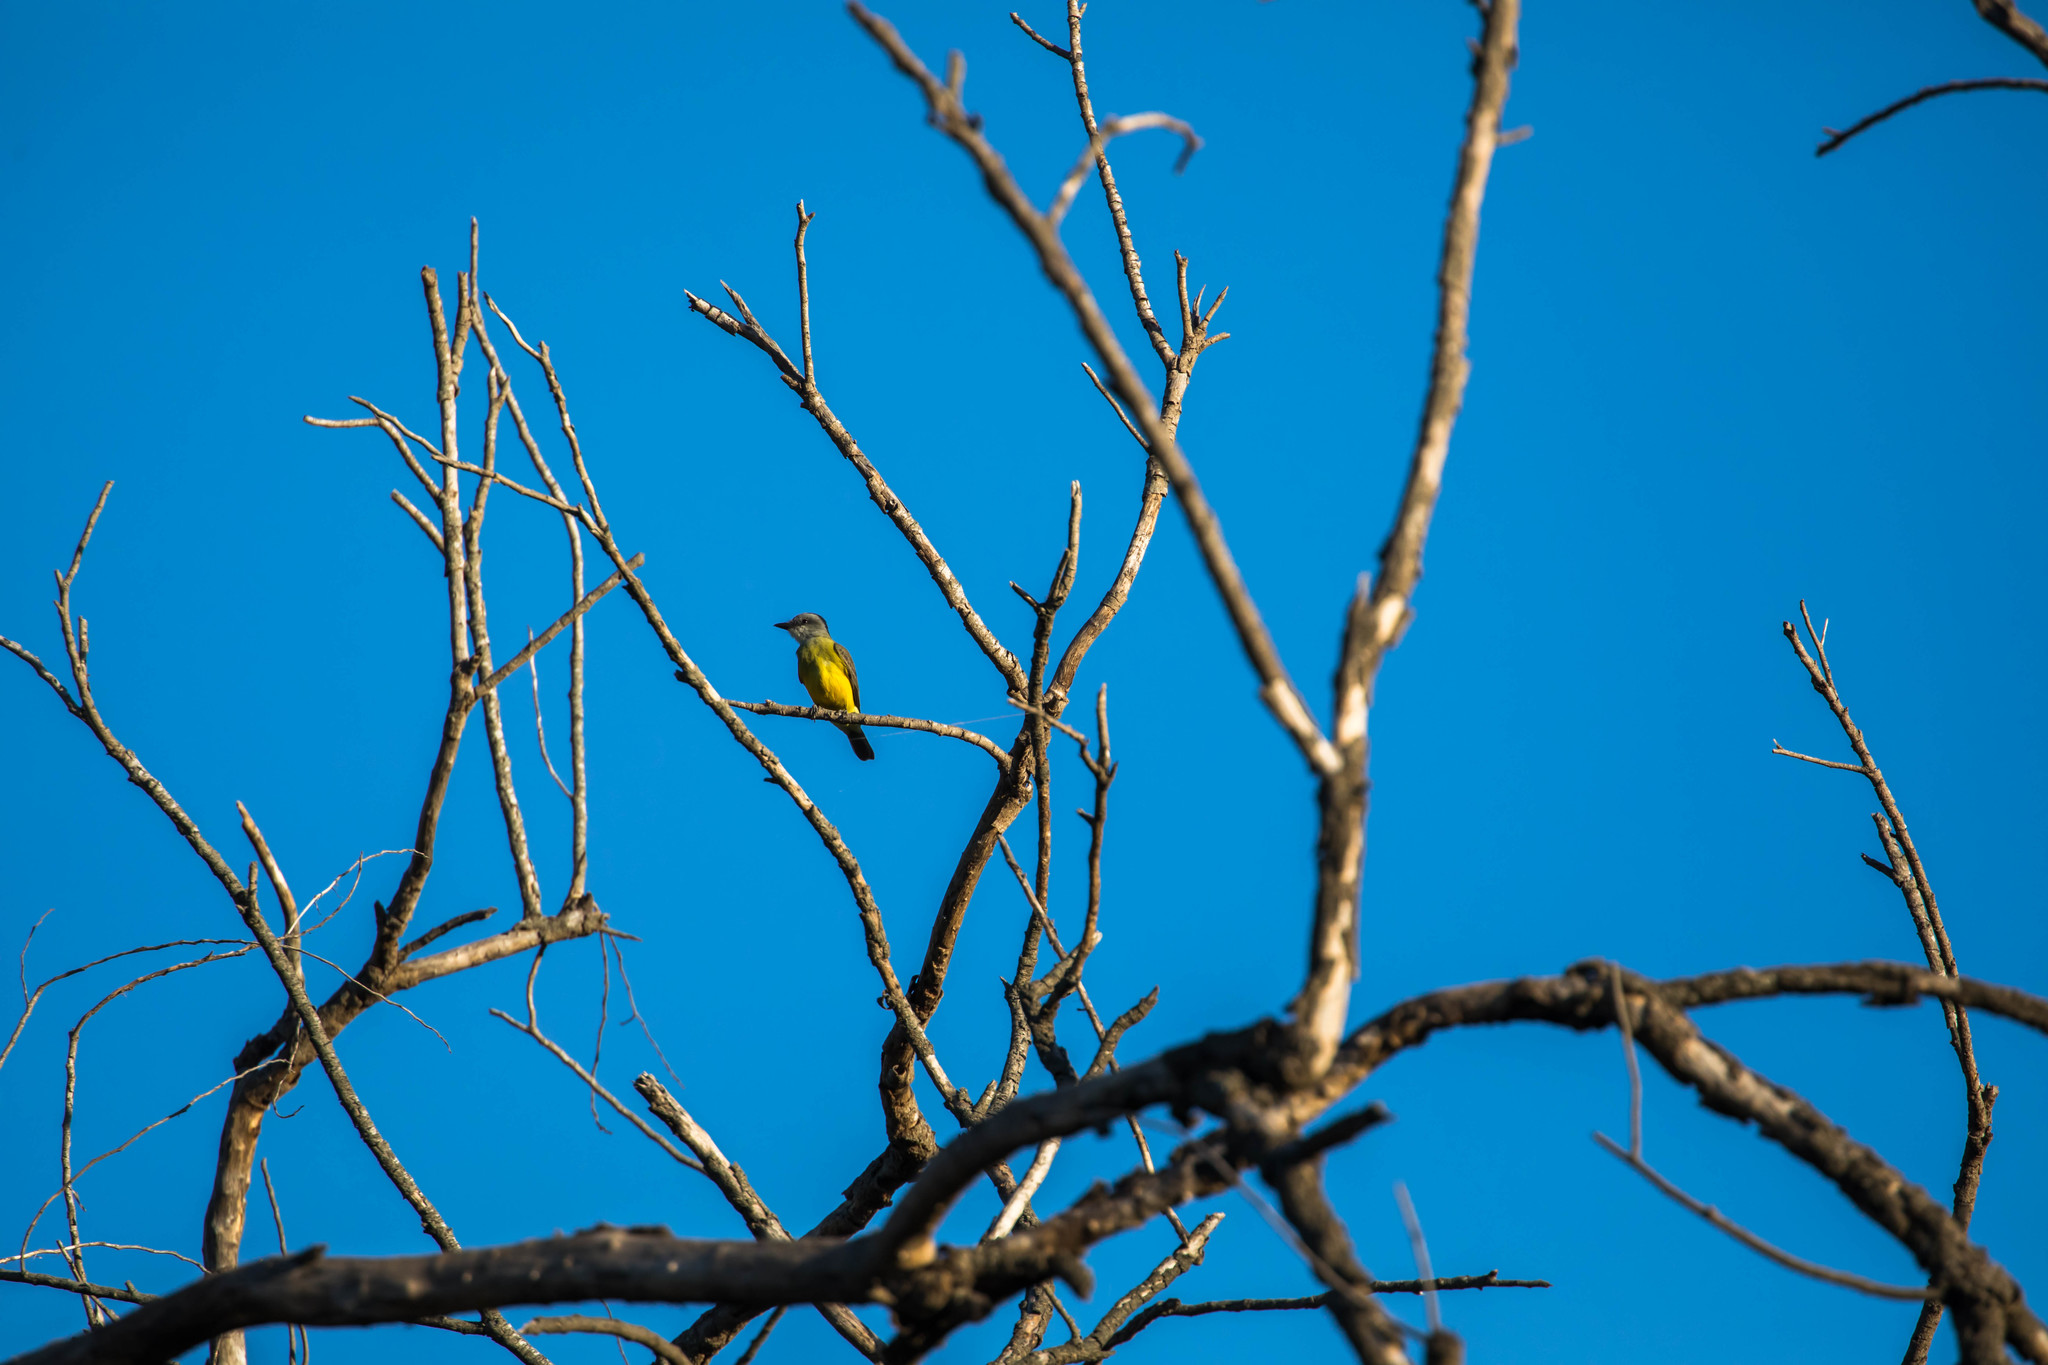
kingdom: Animalia
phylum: Chordata
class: Aves
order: Passeriformes
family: Tyrannidae
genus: Tyrannus
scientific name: Tyrannus
